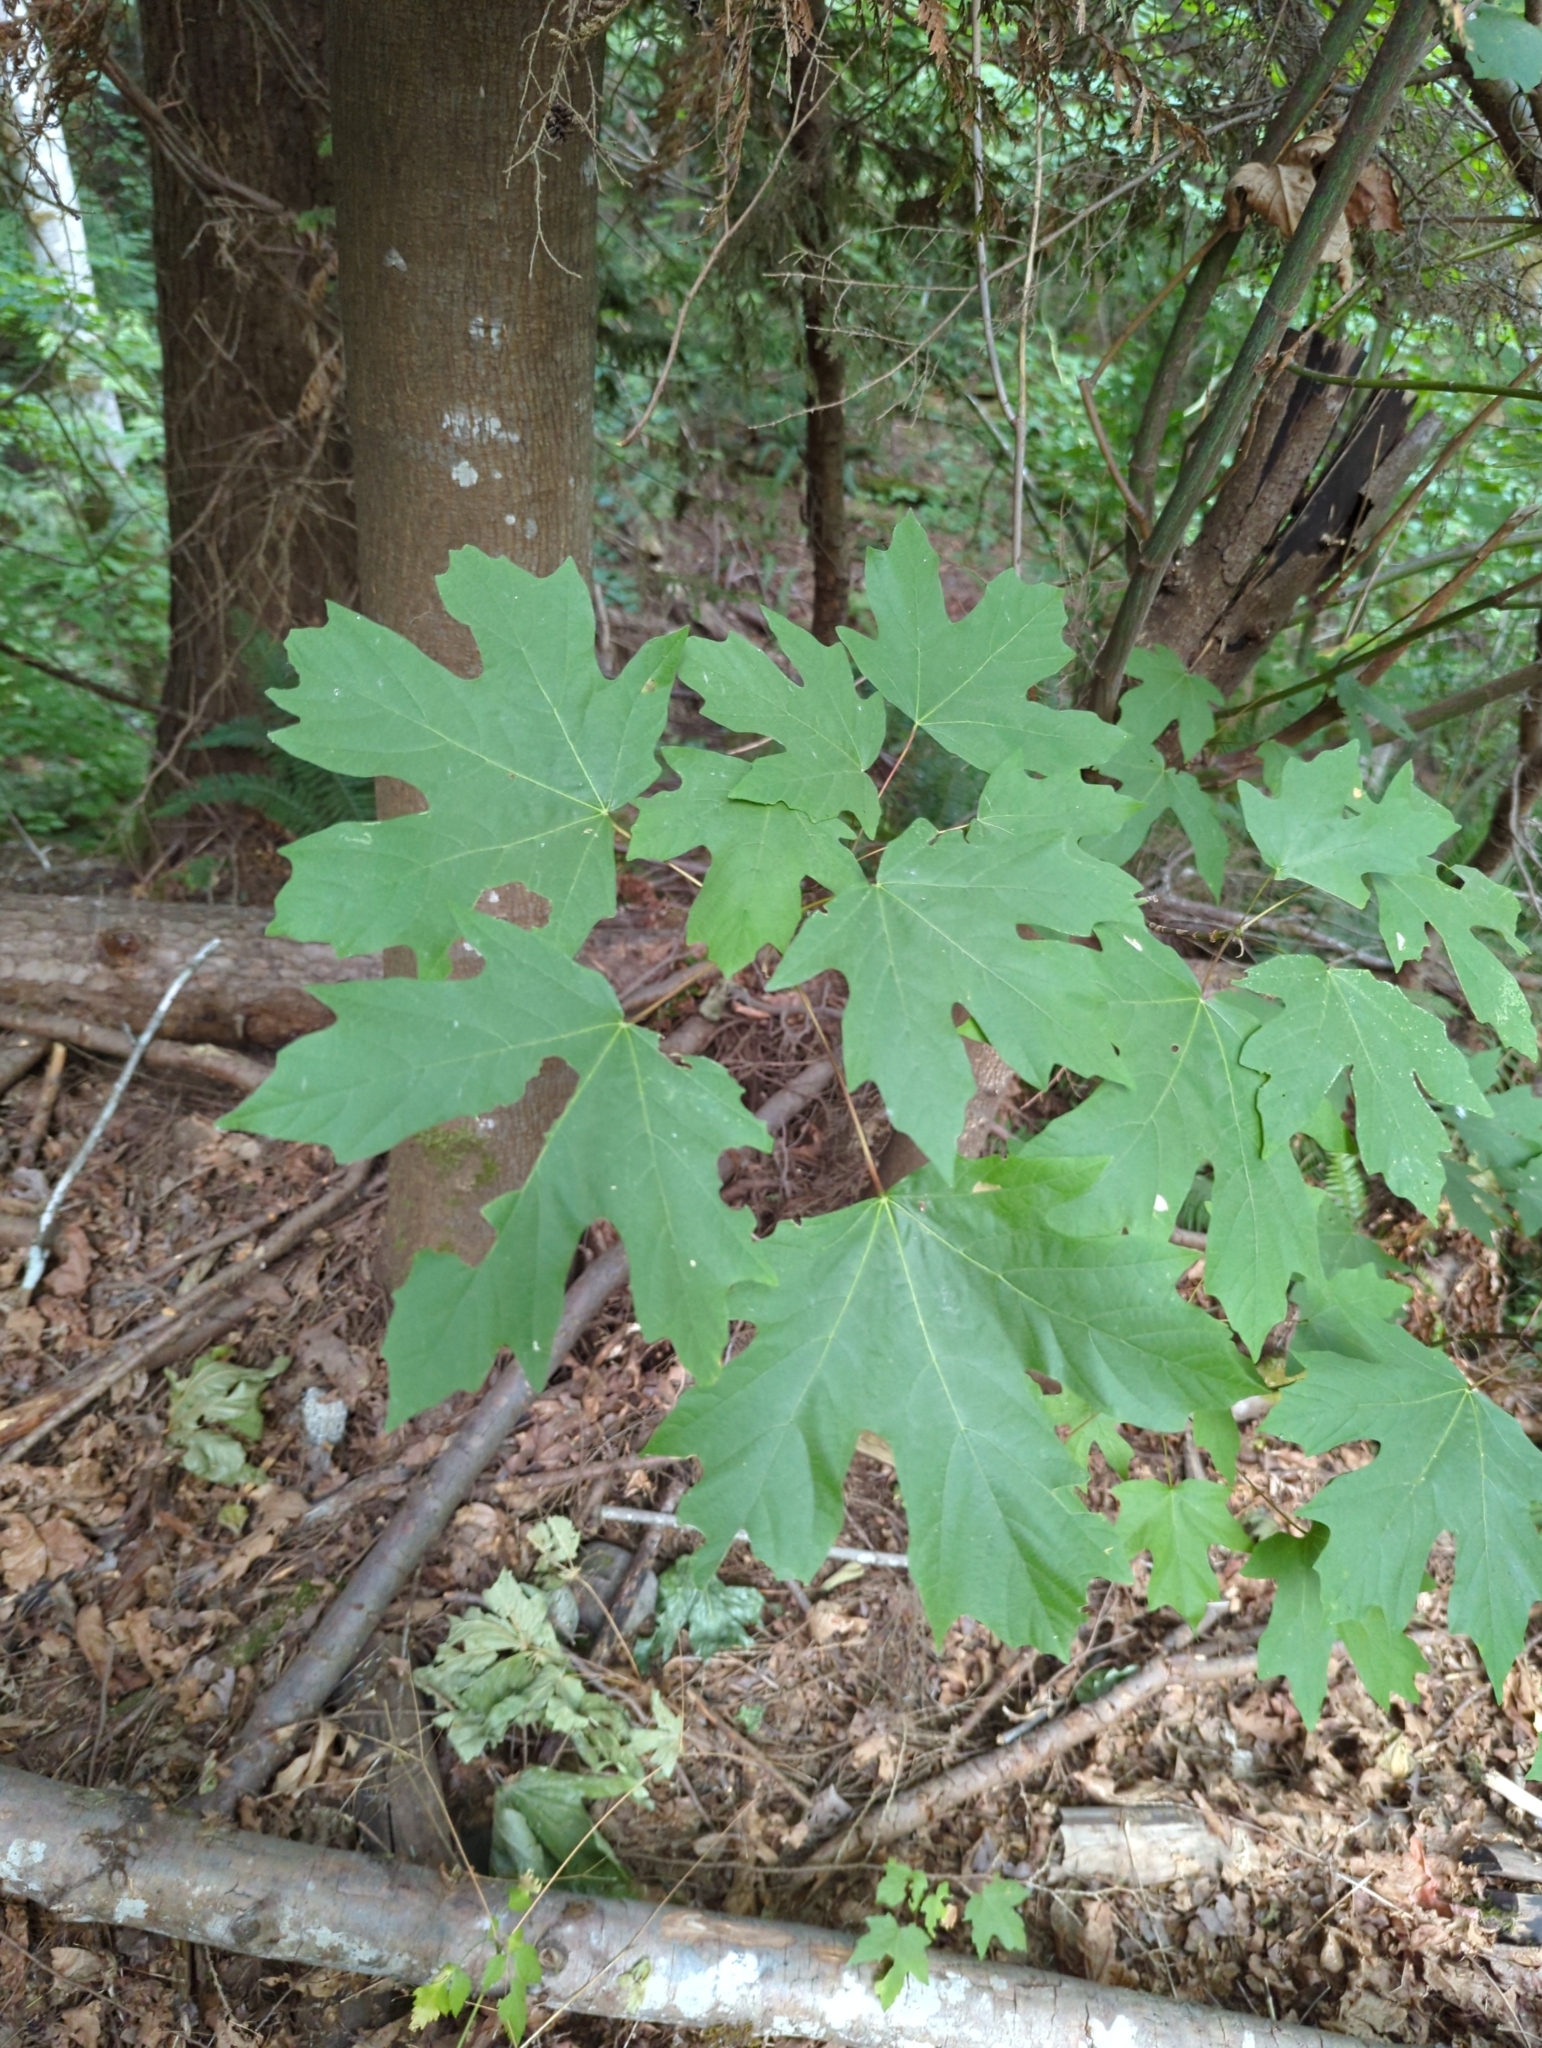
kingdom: Plantae
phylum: Tracheophyta
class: Magnoliopsida
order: Sapindales
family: Sapindaceae
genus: Acer
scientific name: Acer macrophyllum
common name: Oregon maple
